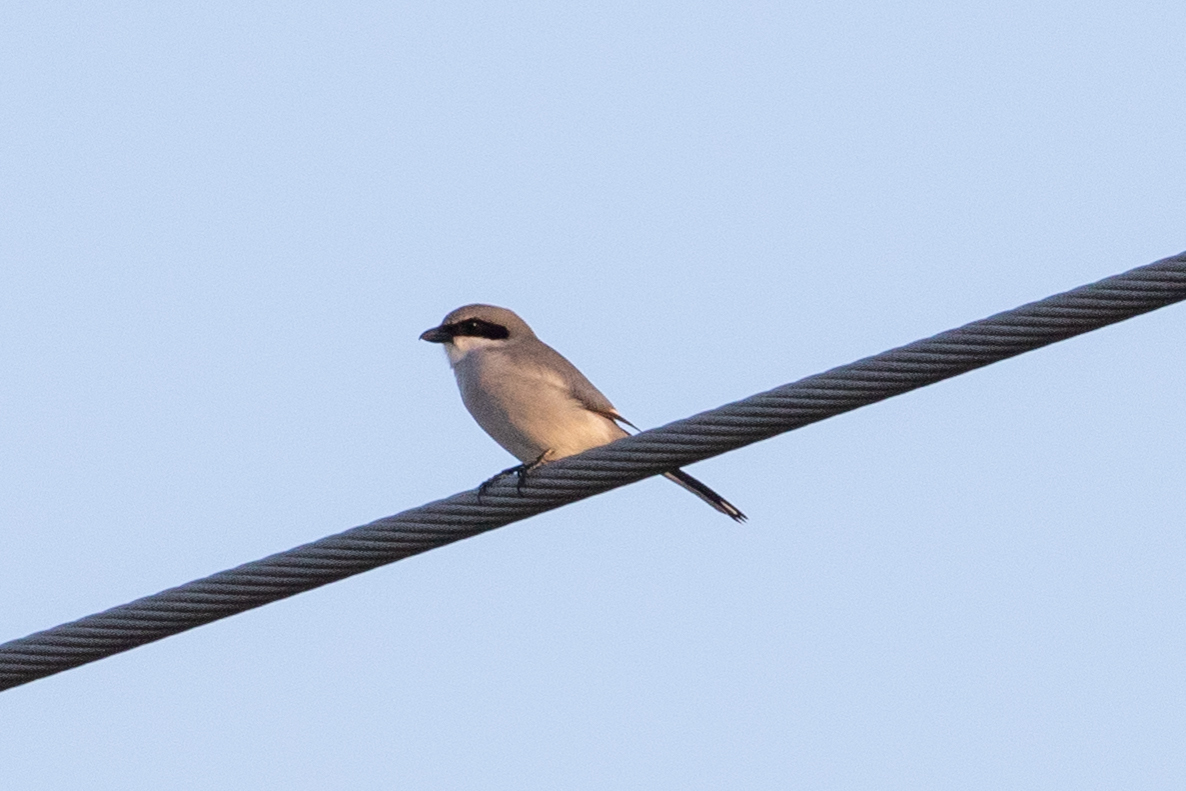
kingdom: Animalia
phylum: Chordata
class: Aves
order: Passeriformes
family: Laniidae
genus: Lanius
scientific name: Lanius ludovicianus
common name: Loggerhead shrike
